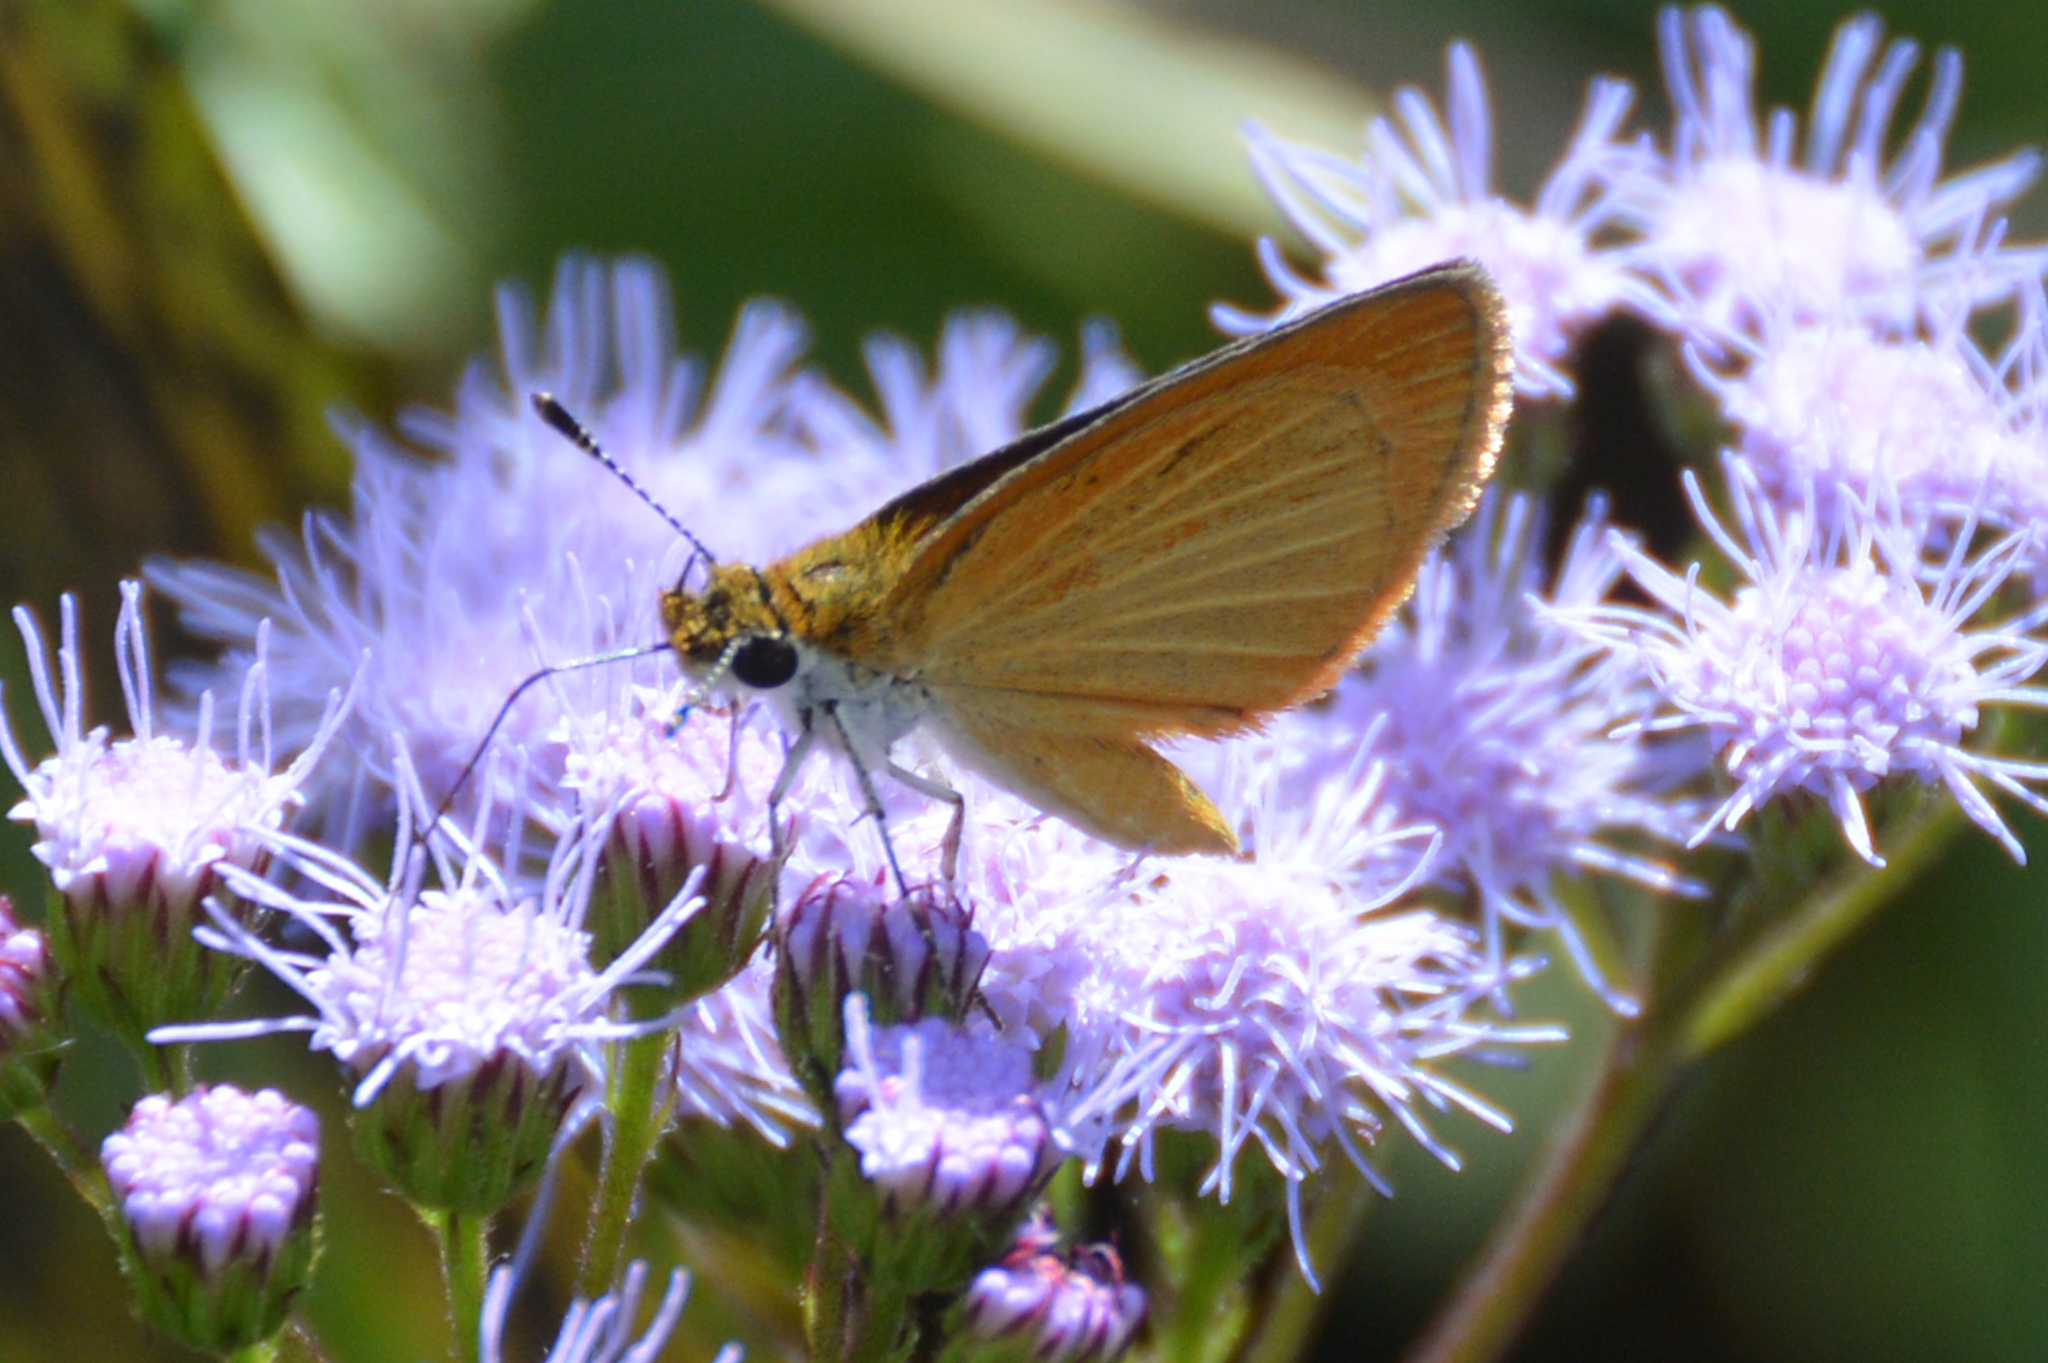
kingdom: Animalia
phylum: Arthropoda
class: Insecta
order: Lepidoptera
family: Hesperiidae
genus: Ancyloxypha
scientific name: Ancyloxypha numitor
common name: Least skipper
